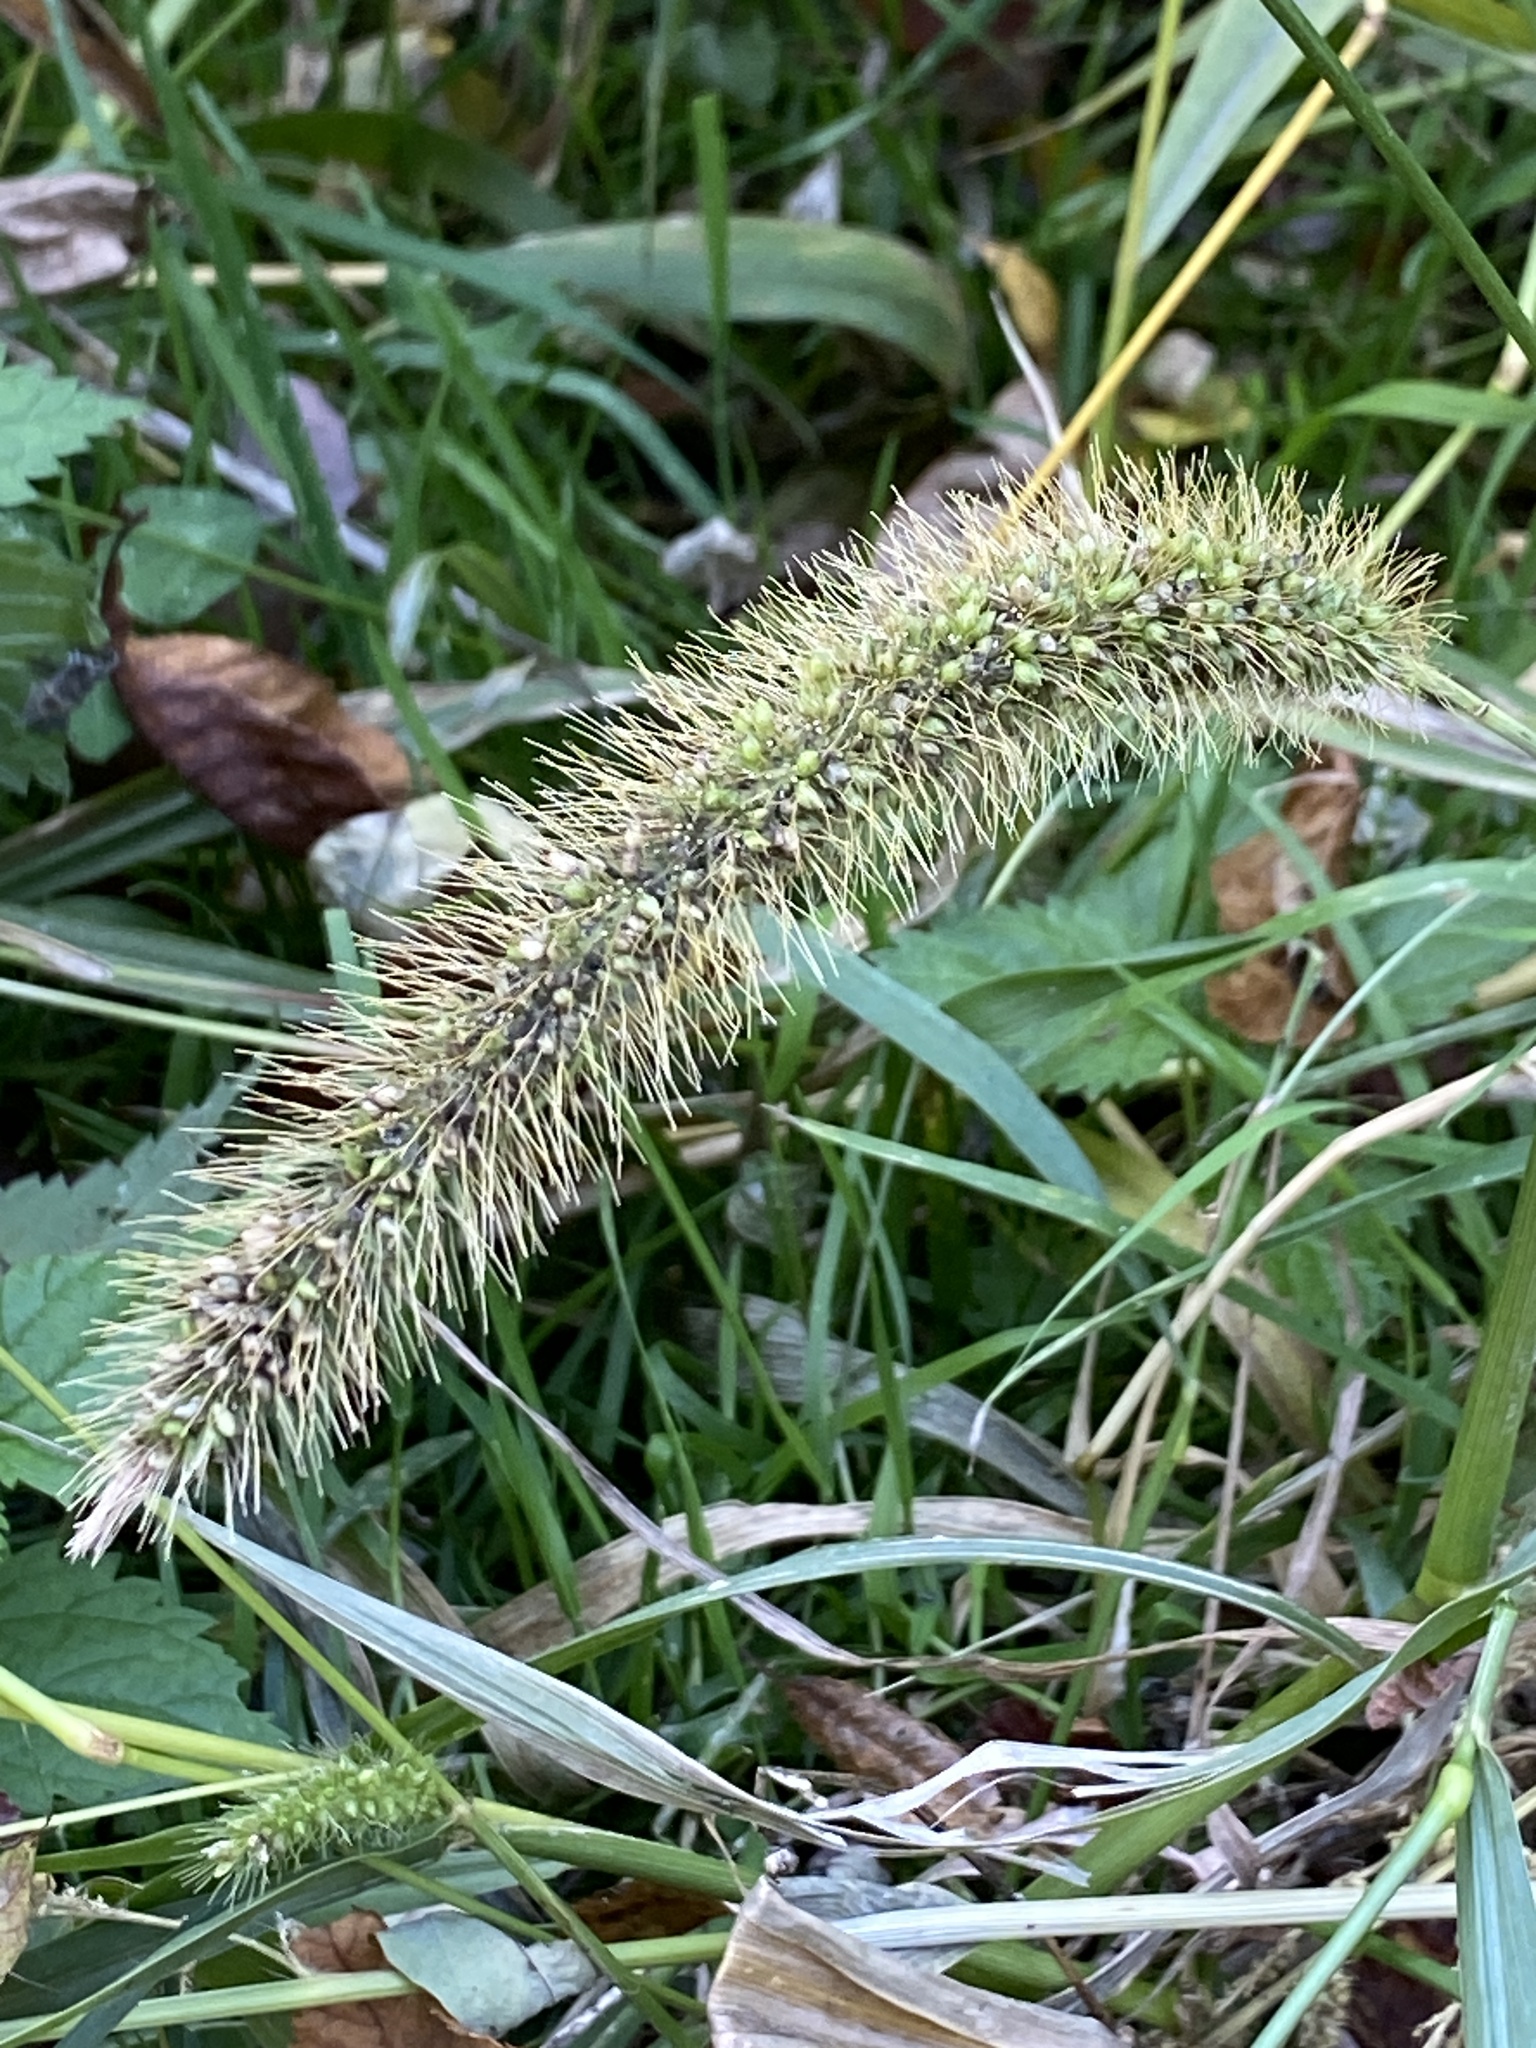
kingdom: Plantae
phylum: Tracheophyta
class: Liliopsida
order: Poales
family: Poaceae
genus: Setaria
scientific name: Setaria faberi
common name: Nodding bristle-grass
